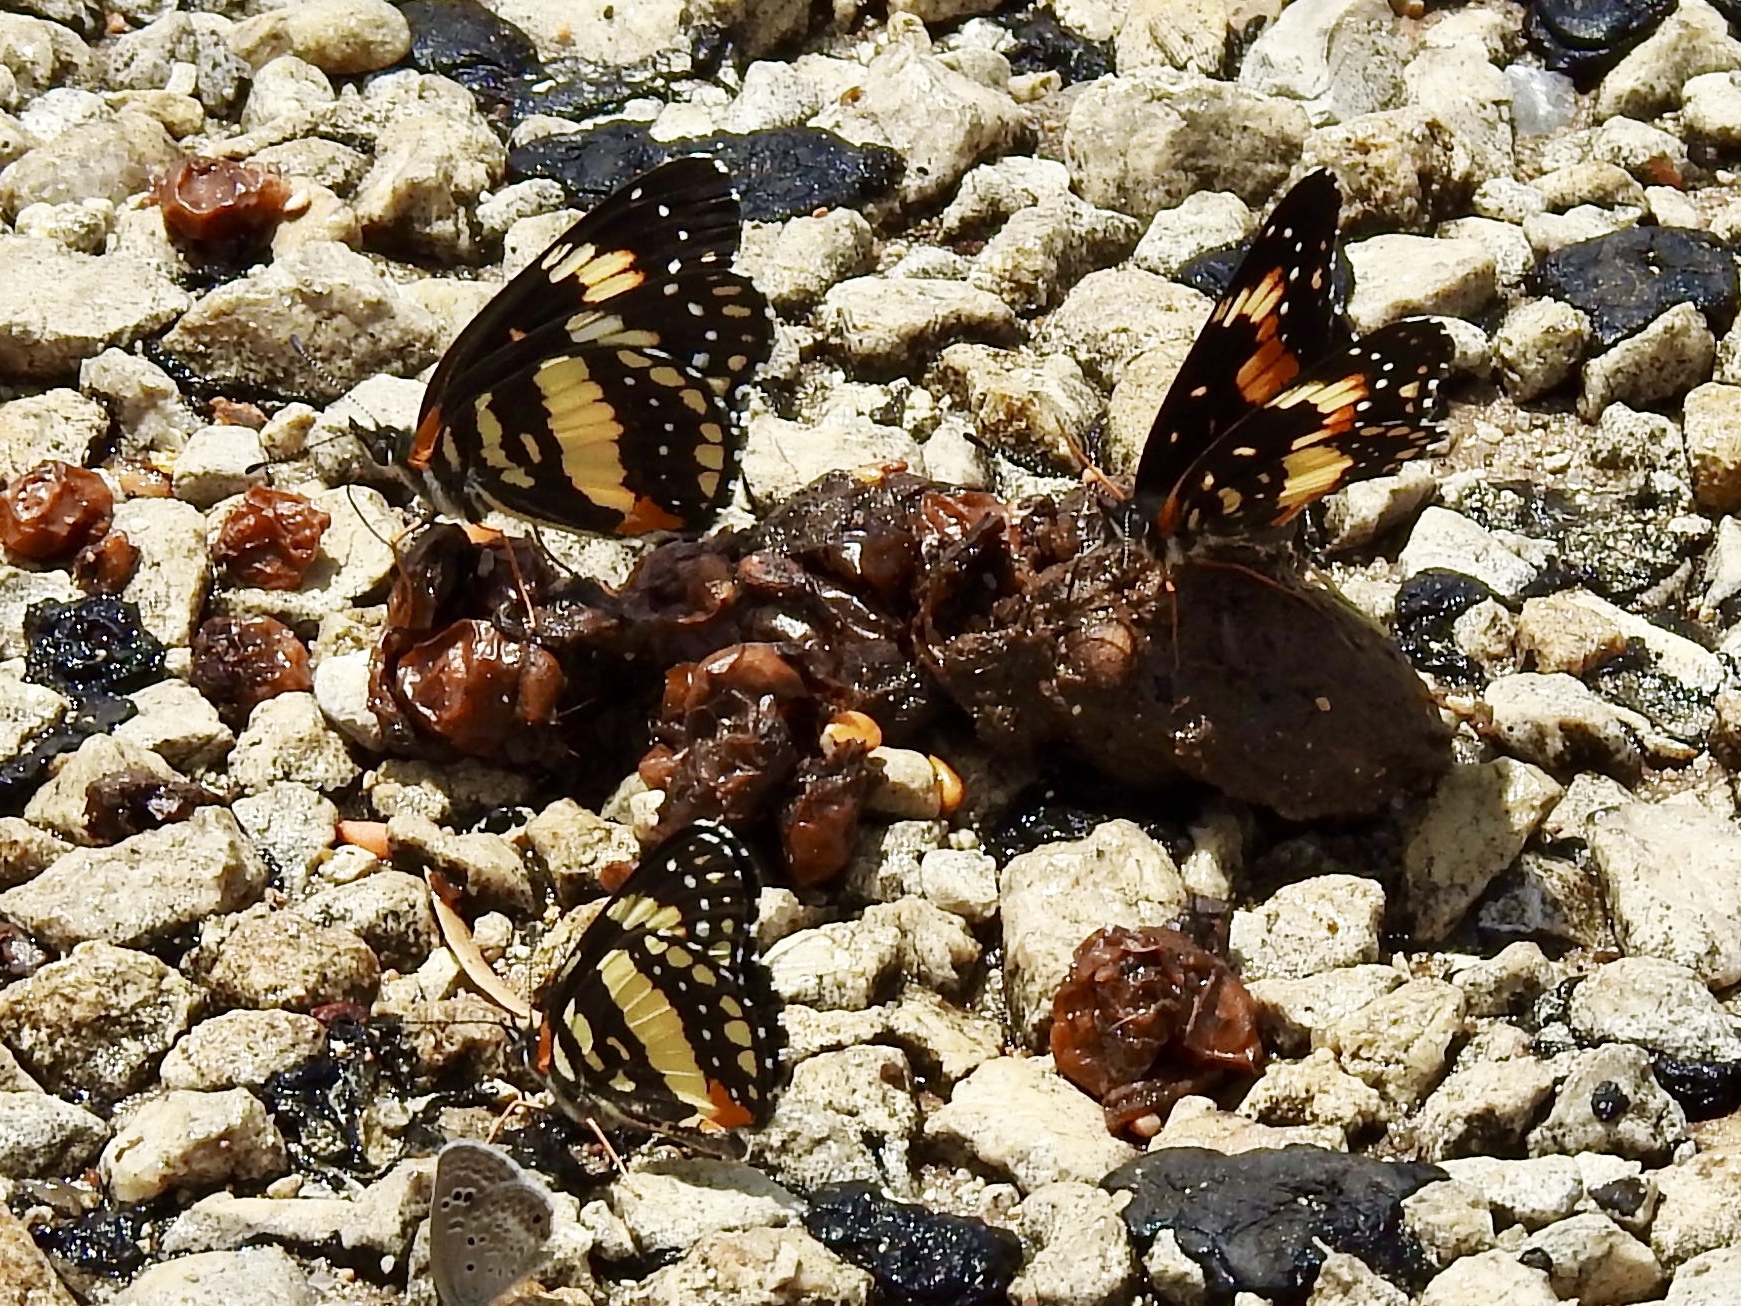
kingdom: Animalia
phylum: Arthropoda
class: Insecta
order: Lepidoptera
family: Nymphalidae
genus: Chlosyne
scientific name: Chlosyne lacinia
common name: Bordered patch
